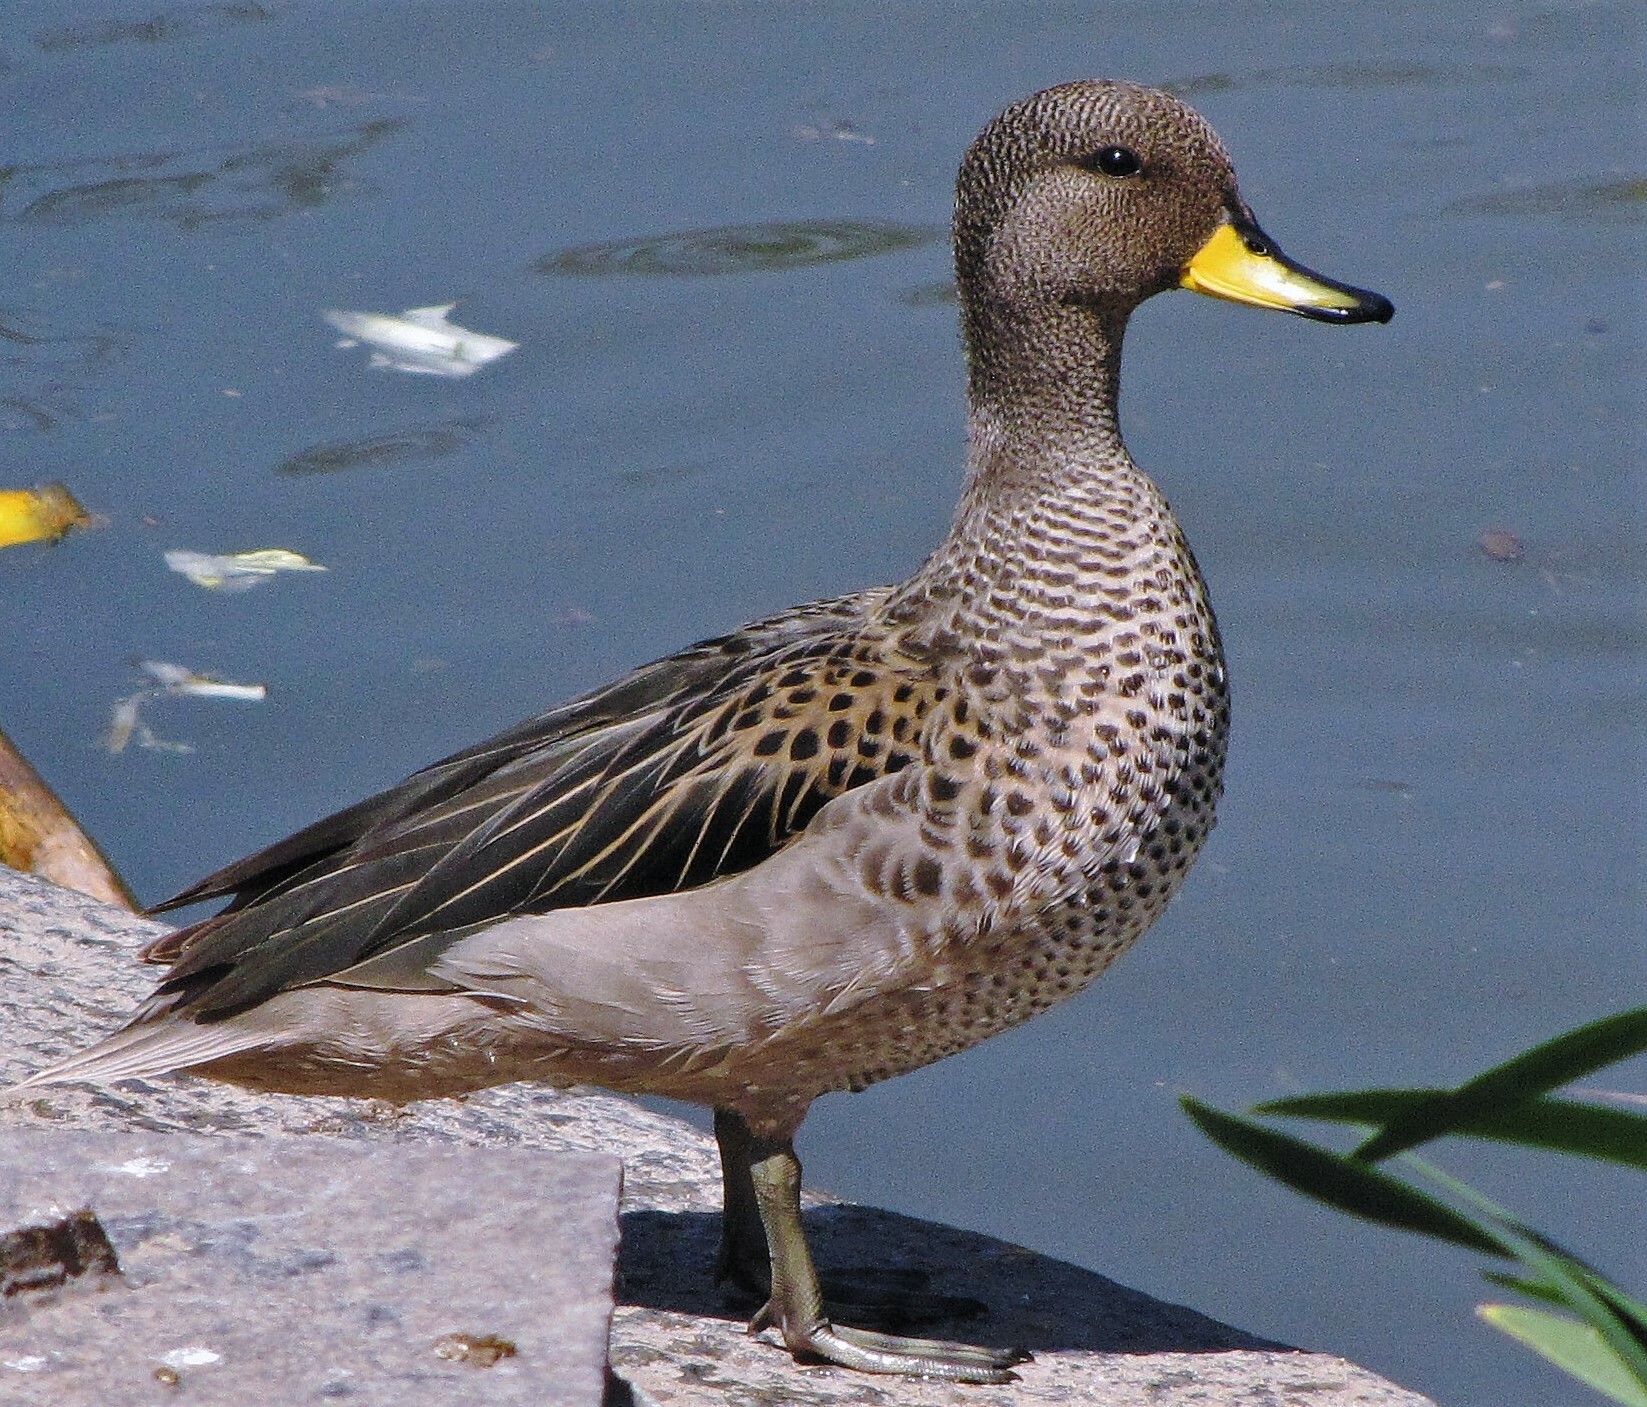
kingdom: Animalia
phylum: Chordata
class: Aves
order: Anseriformes
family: Anatidae
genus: Anas
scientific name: Anas flavirostris
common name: Yellow-billed teal
